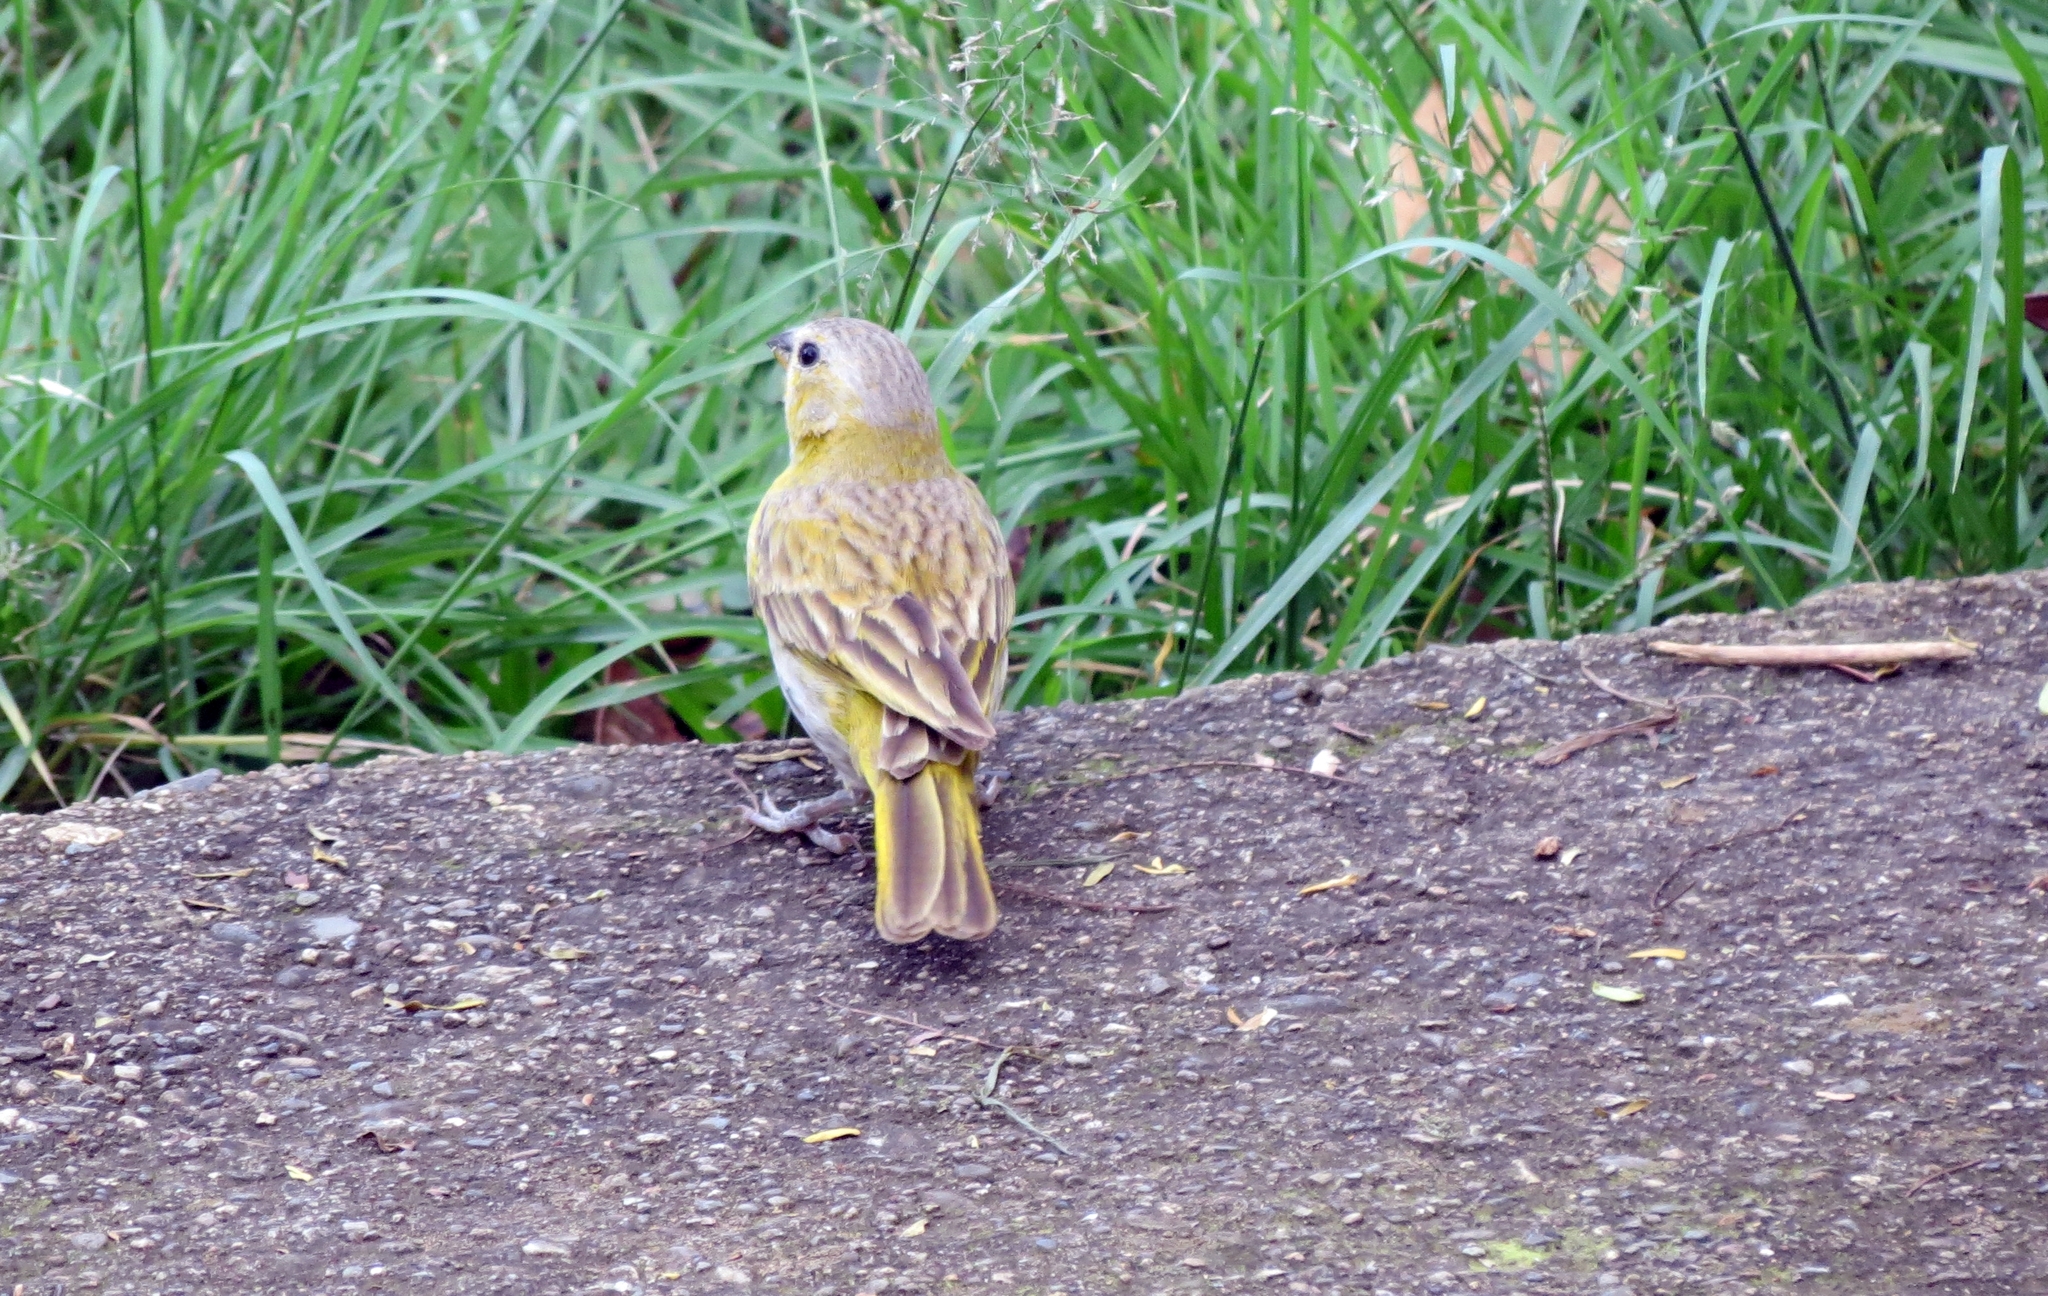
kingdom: Animalia
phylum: Chordata
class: Aves
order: Passeriformes
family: Thraupidae
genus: Sicalis
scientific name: Sicalis flaveola
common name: Saffron finch
